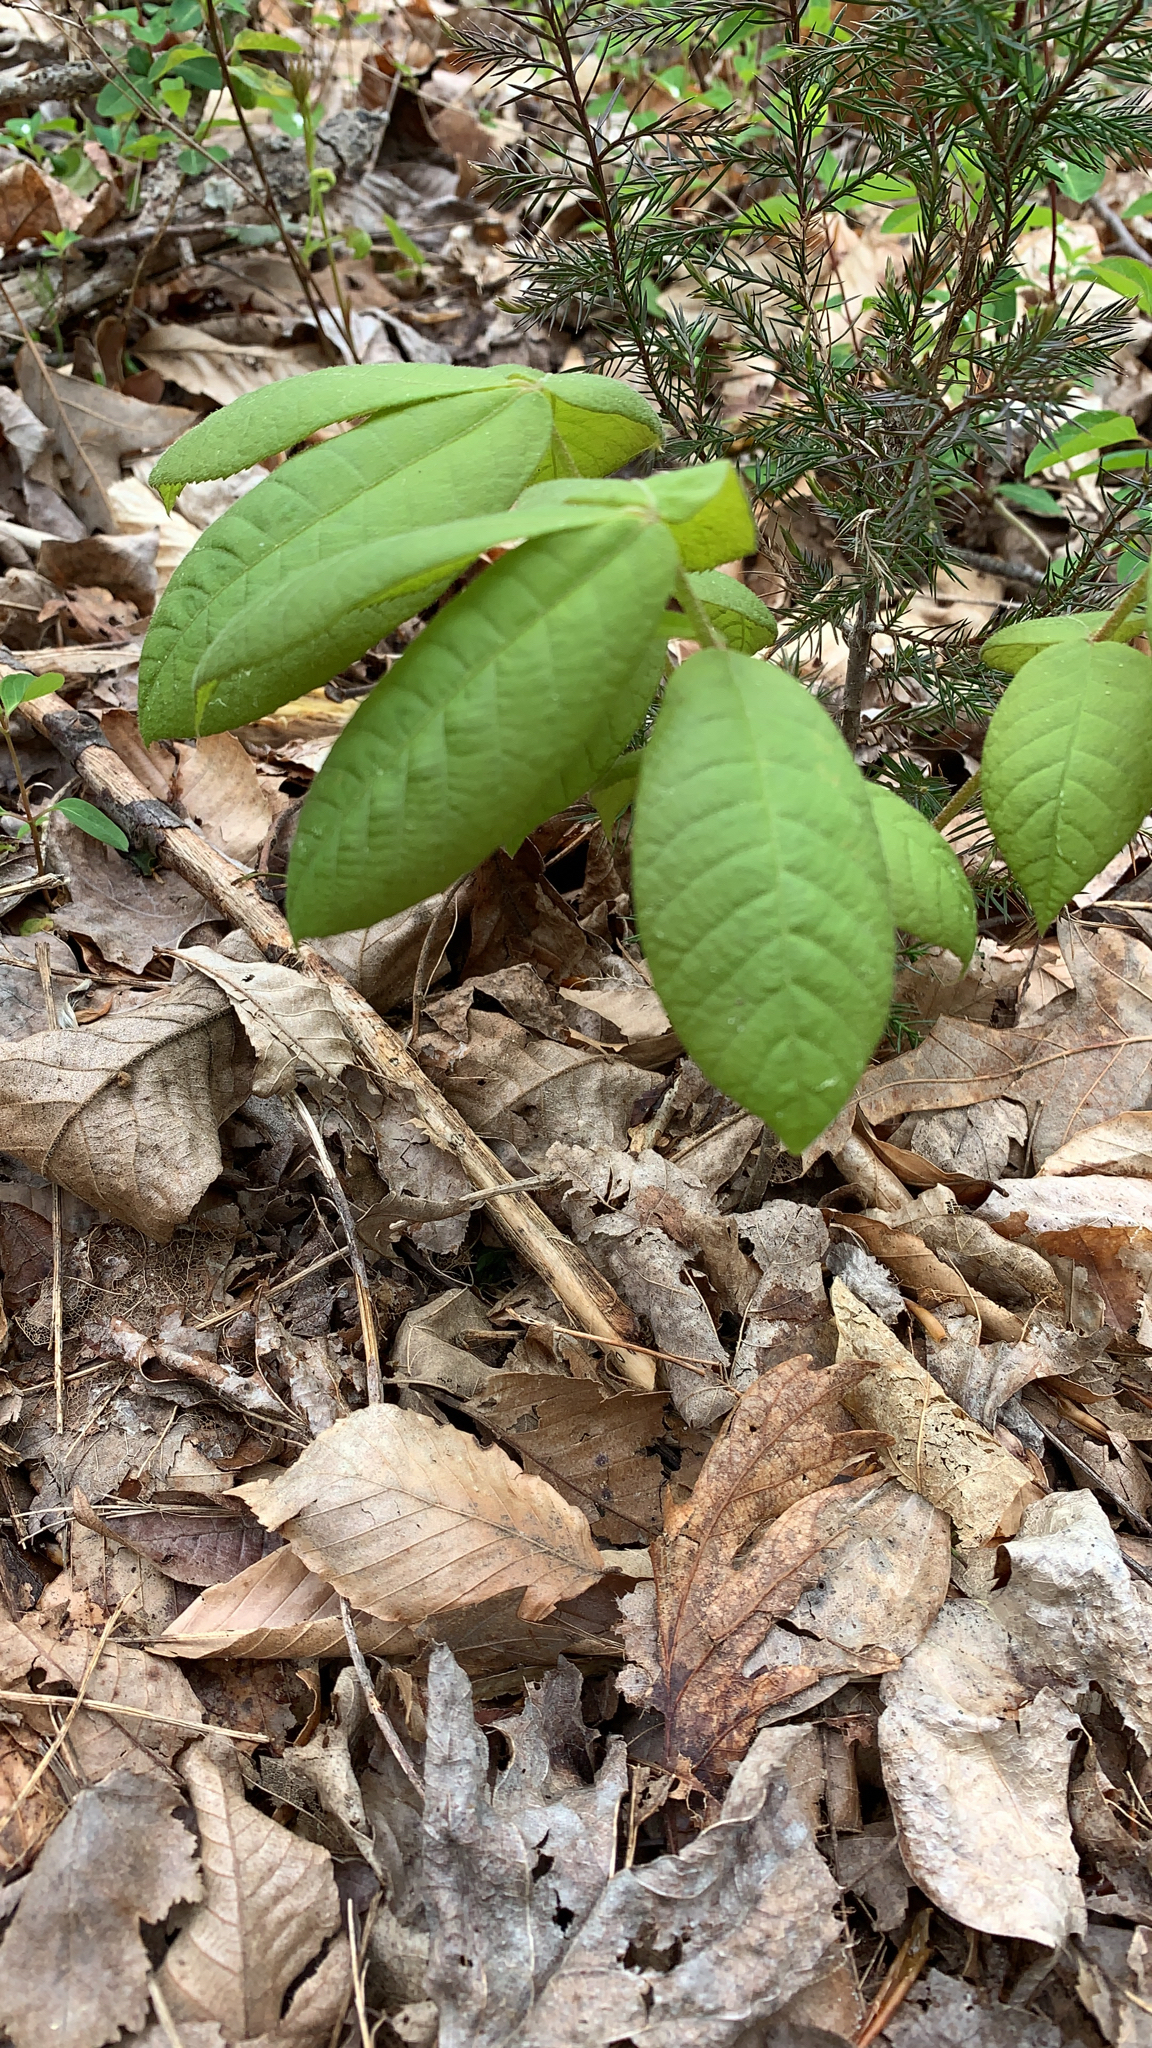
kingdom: Plantae
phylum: Tracheophyta
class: Magnoliopsida
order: Fagales
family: Juglandaceae
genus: Carya
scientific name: Carya
